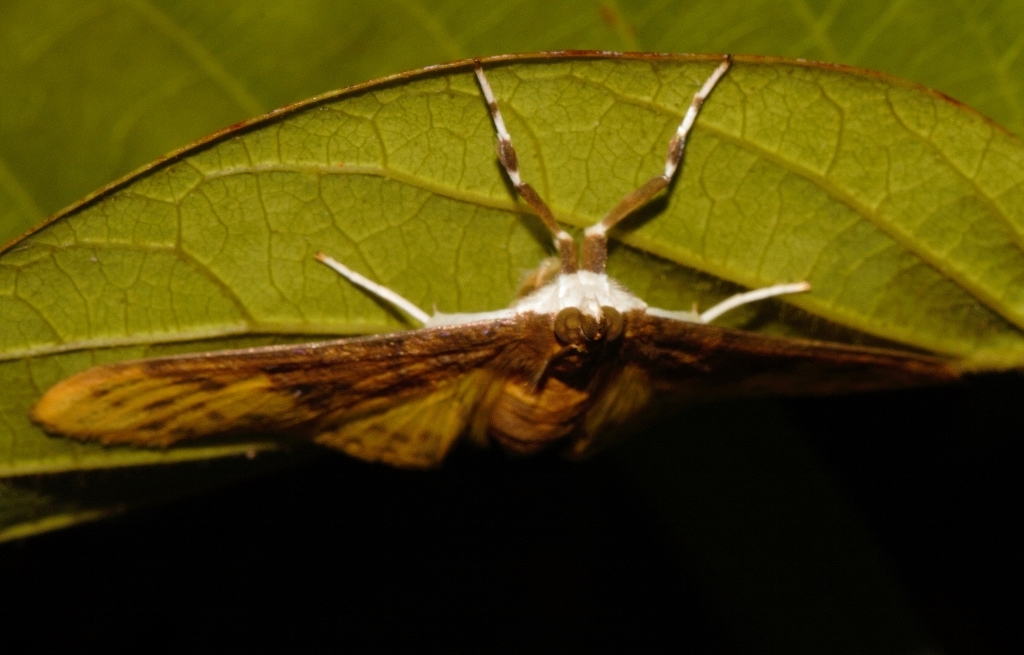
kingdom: Animalia
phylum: Arthropoda
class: Insecta
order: Lepidoptera
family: Crambidae
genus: Ghesquierellana
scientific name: Ghesquierellana hirtusalis
